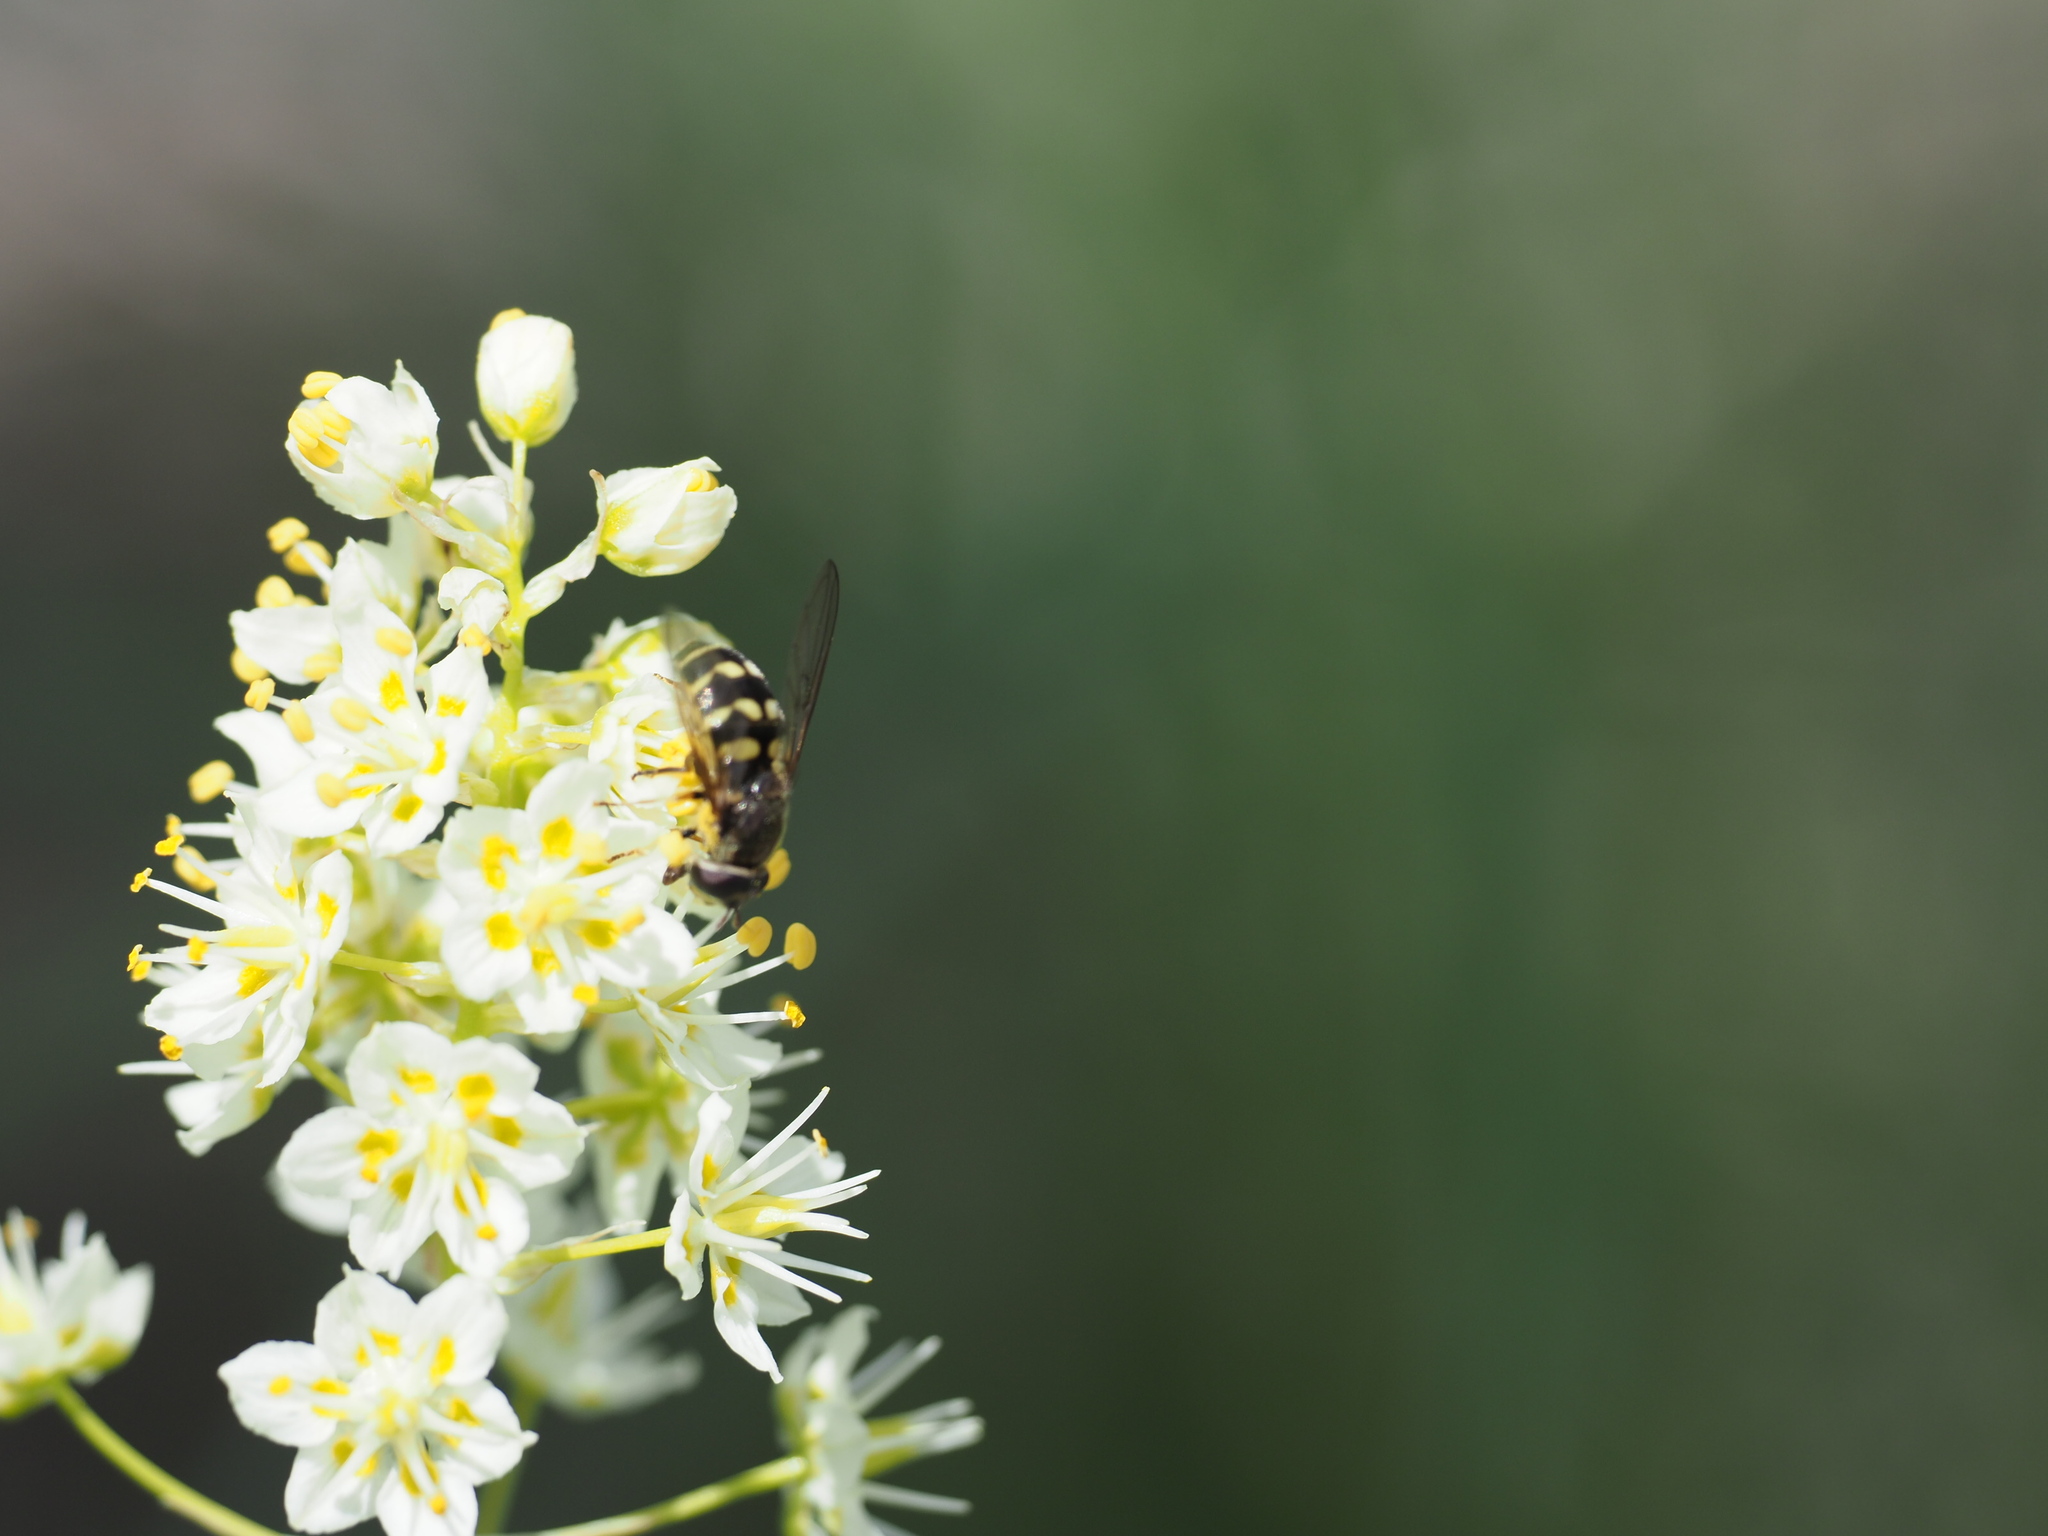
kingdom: Plantae
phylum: Tracheophyta
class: Liliopsida
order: Liliales
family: Melanthiaceae
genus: Toxicoscordion
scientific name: Toxicoscordion
